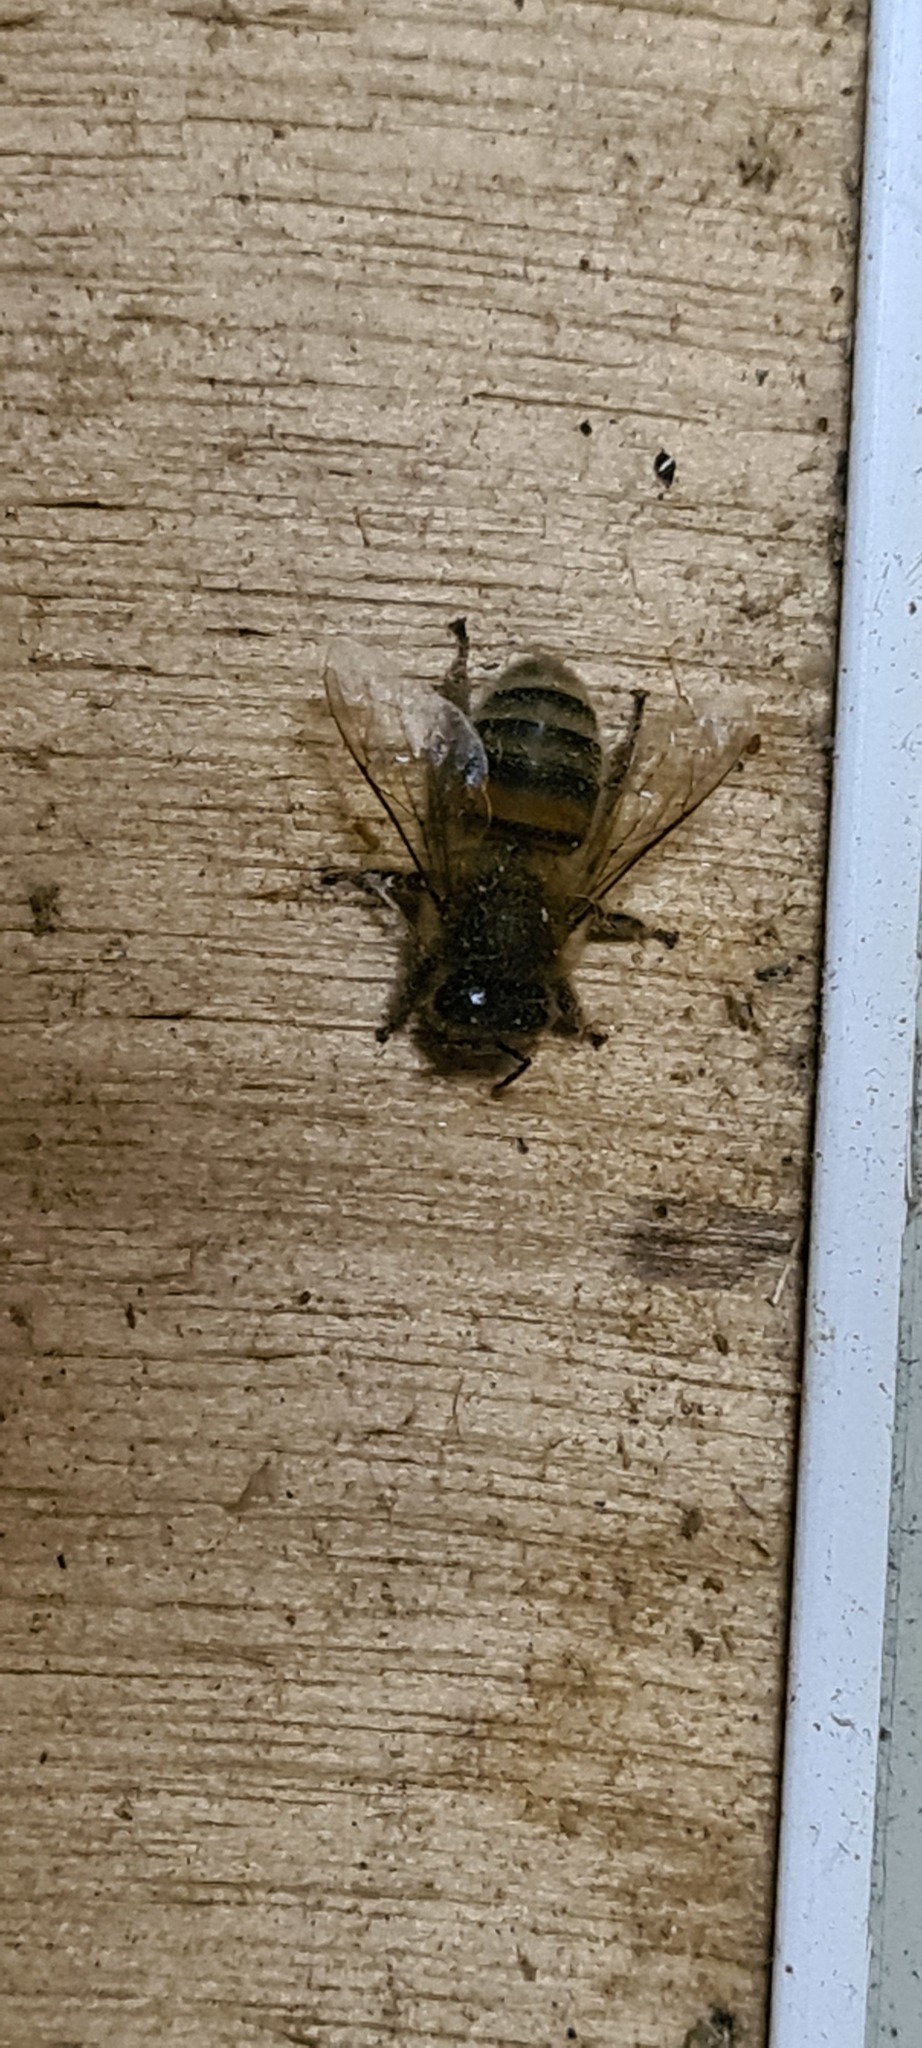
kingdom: Animalia
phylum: Arthropoda
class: Insecta
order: Hymenoptera
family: Apidae
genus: Apis
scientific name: Apis mellifera
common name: Honey bee
